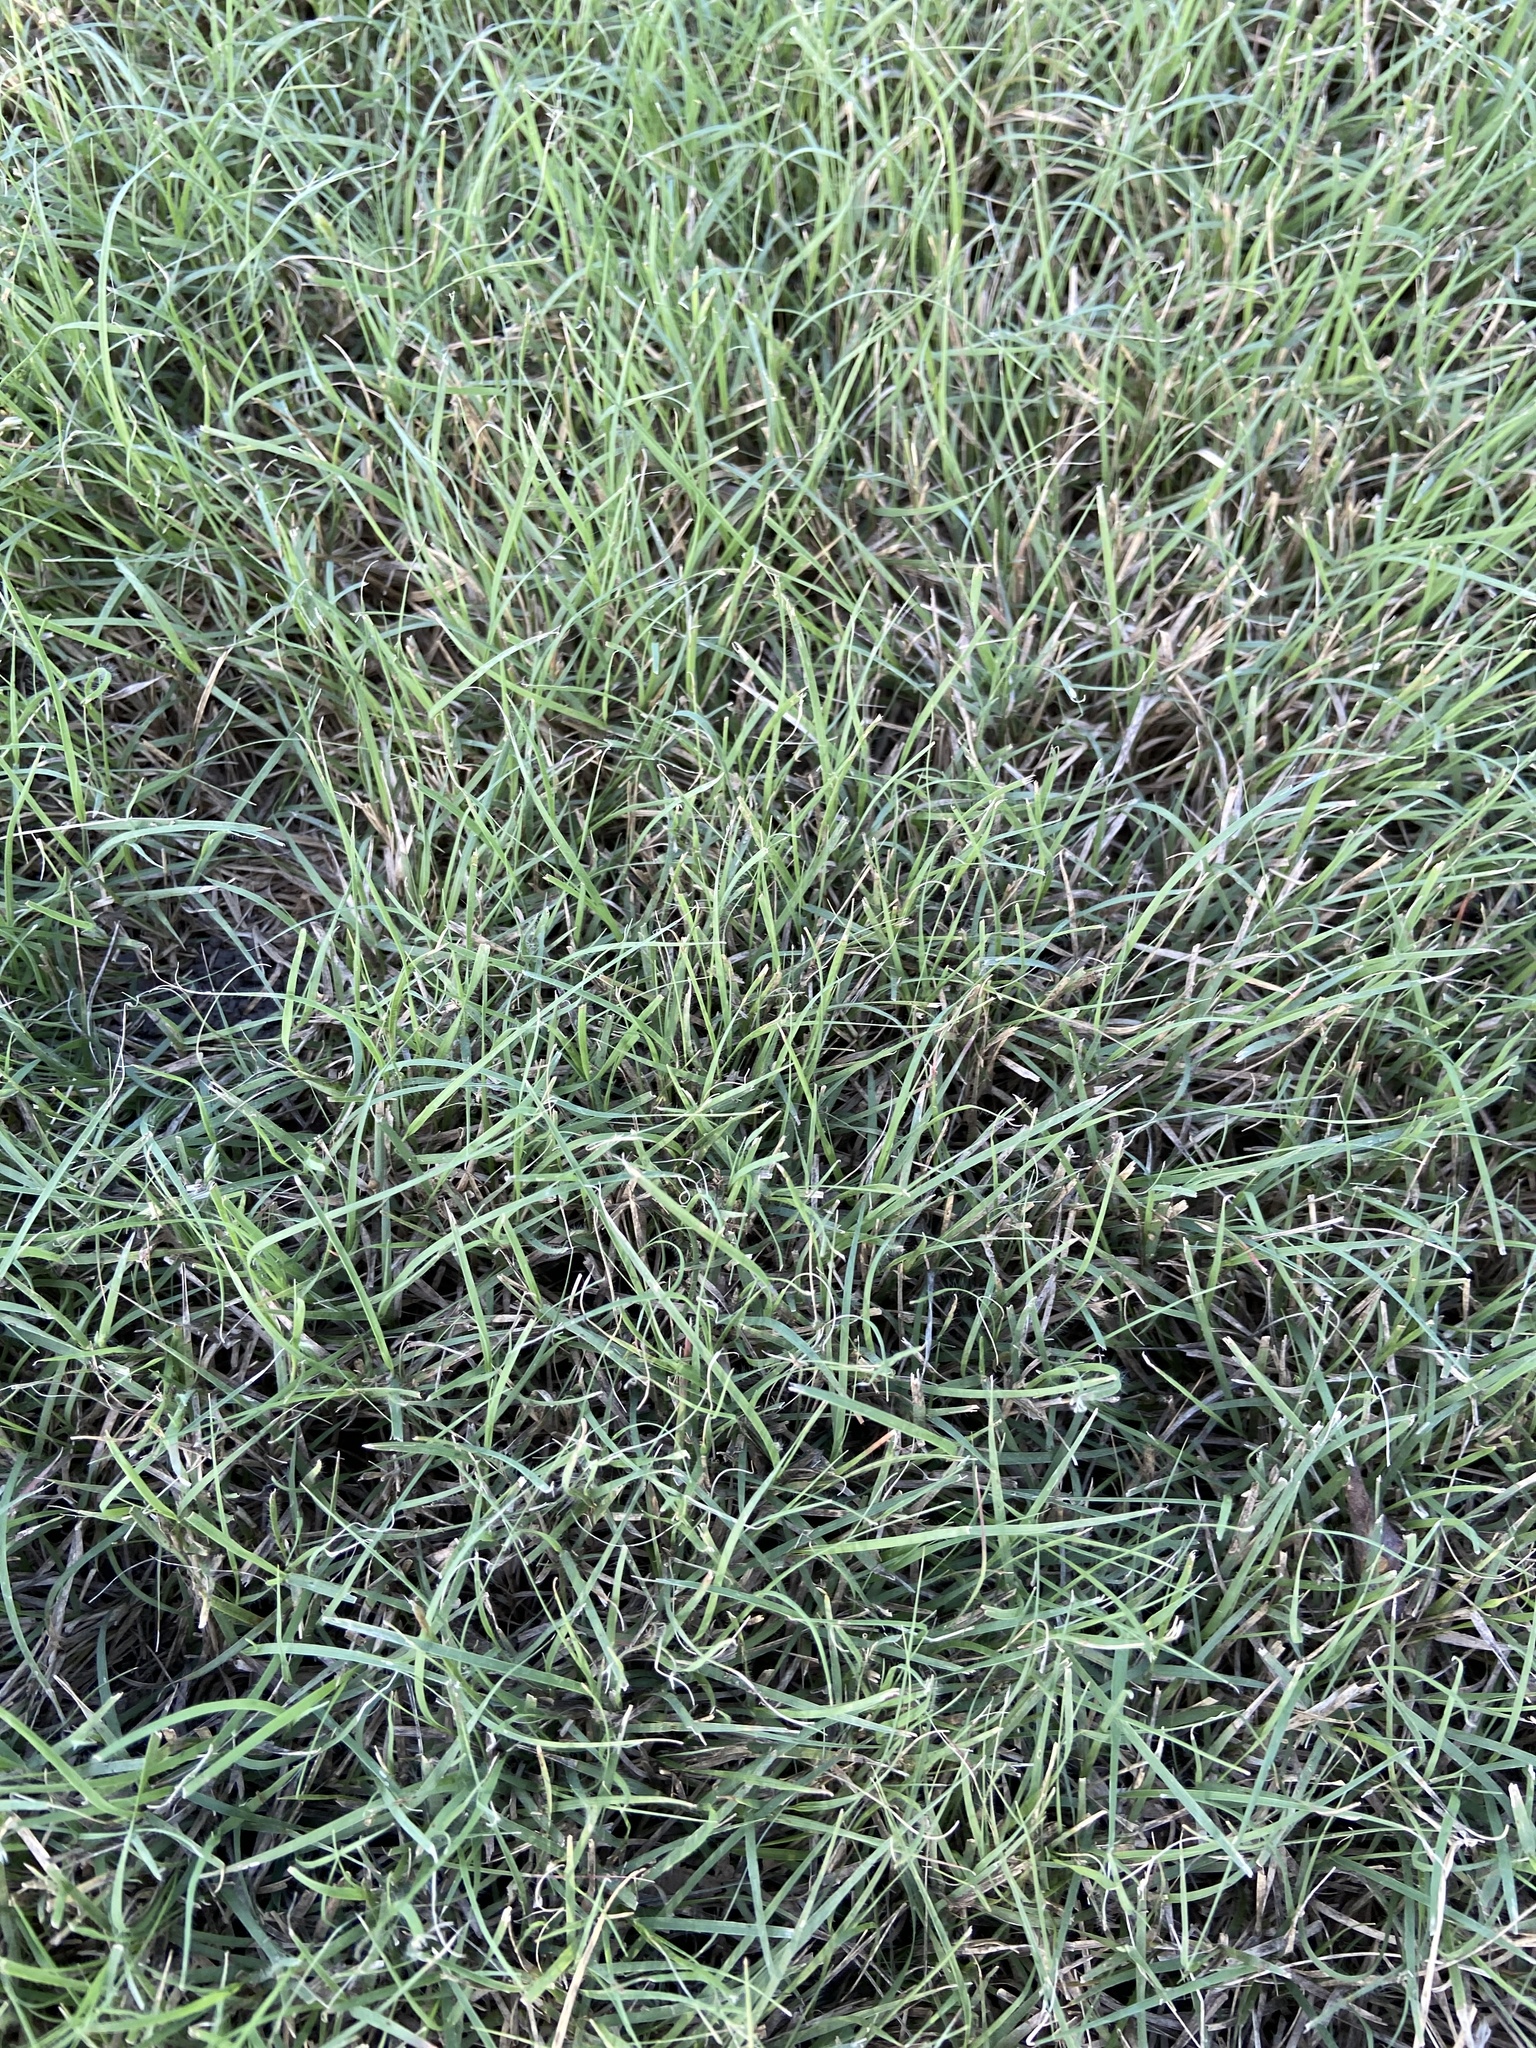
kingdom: Plantae
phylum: Tracheophyta
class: Liliopsida
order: Poales
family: Poaceae
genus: Cynodon
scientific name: Cynodon dactylon
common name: Bermuda grass
